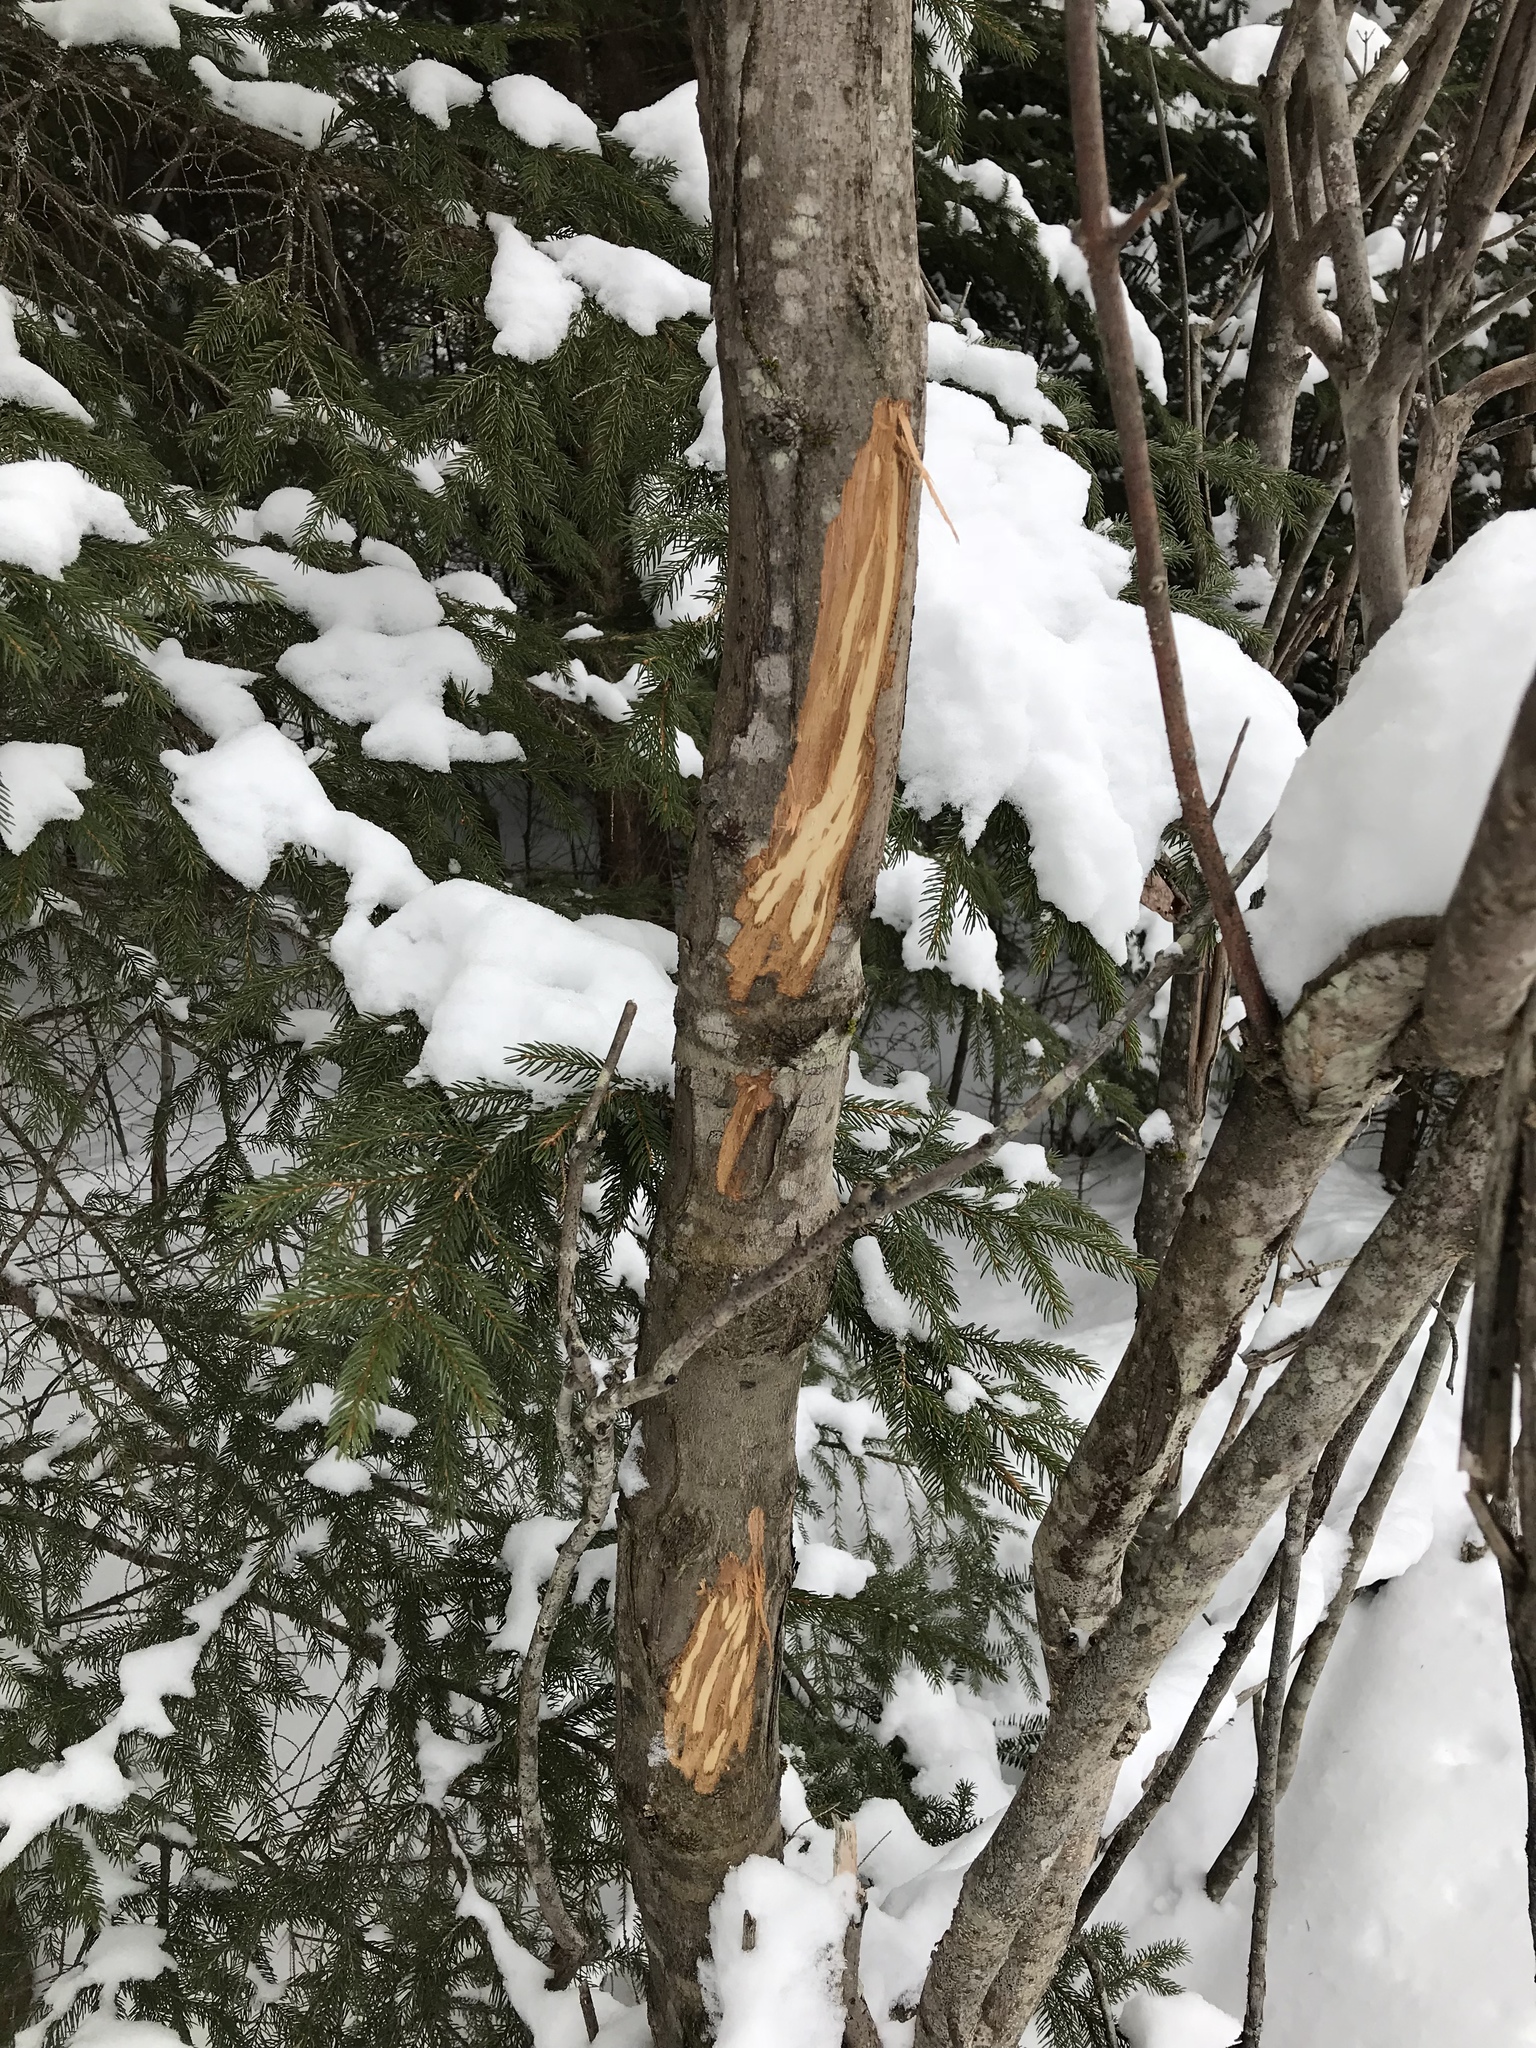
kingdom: Animalia
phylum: Chordata
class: Mammalia
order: Artiodactyla
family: Cervidae
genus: Alces
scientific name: Alces alces
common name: Moose
